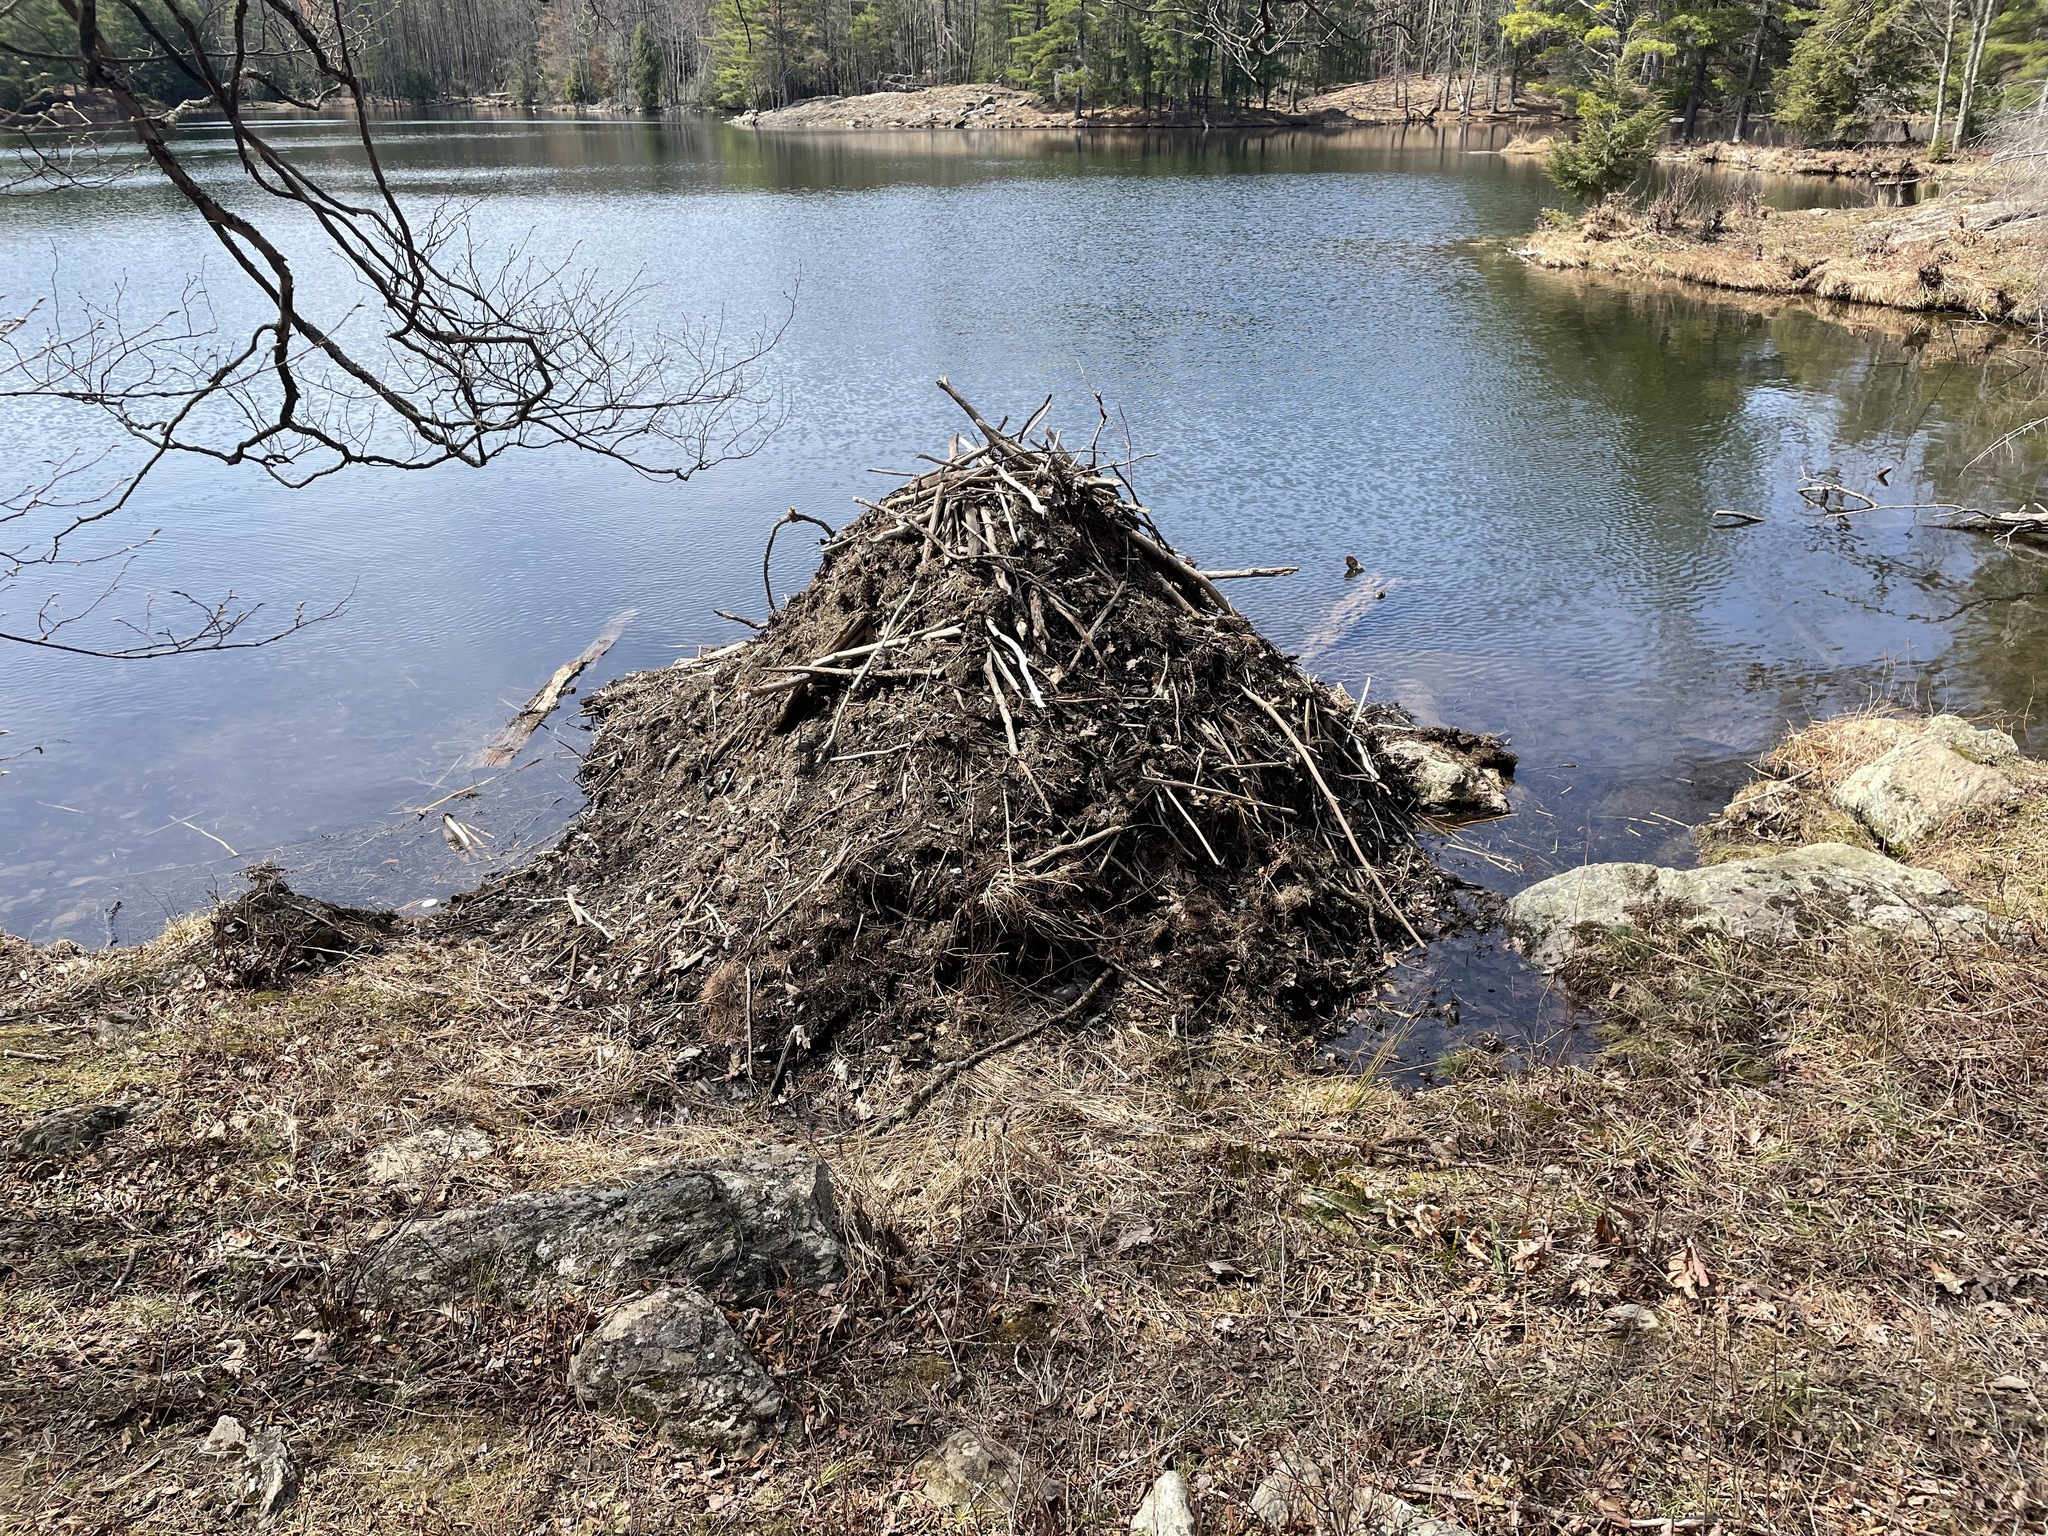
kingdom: Animalia
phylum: Chordata
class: Mammalia
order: Rodentia
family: Castoridae
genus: Castor
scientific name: Castor canadensis
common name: American beaver
